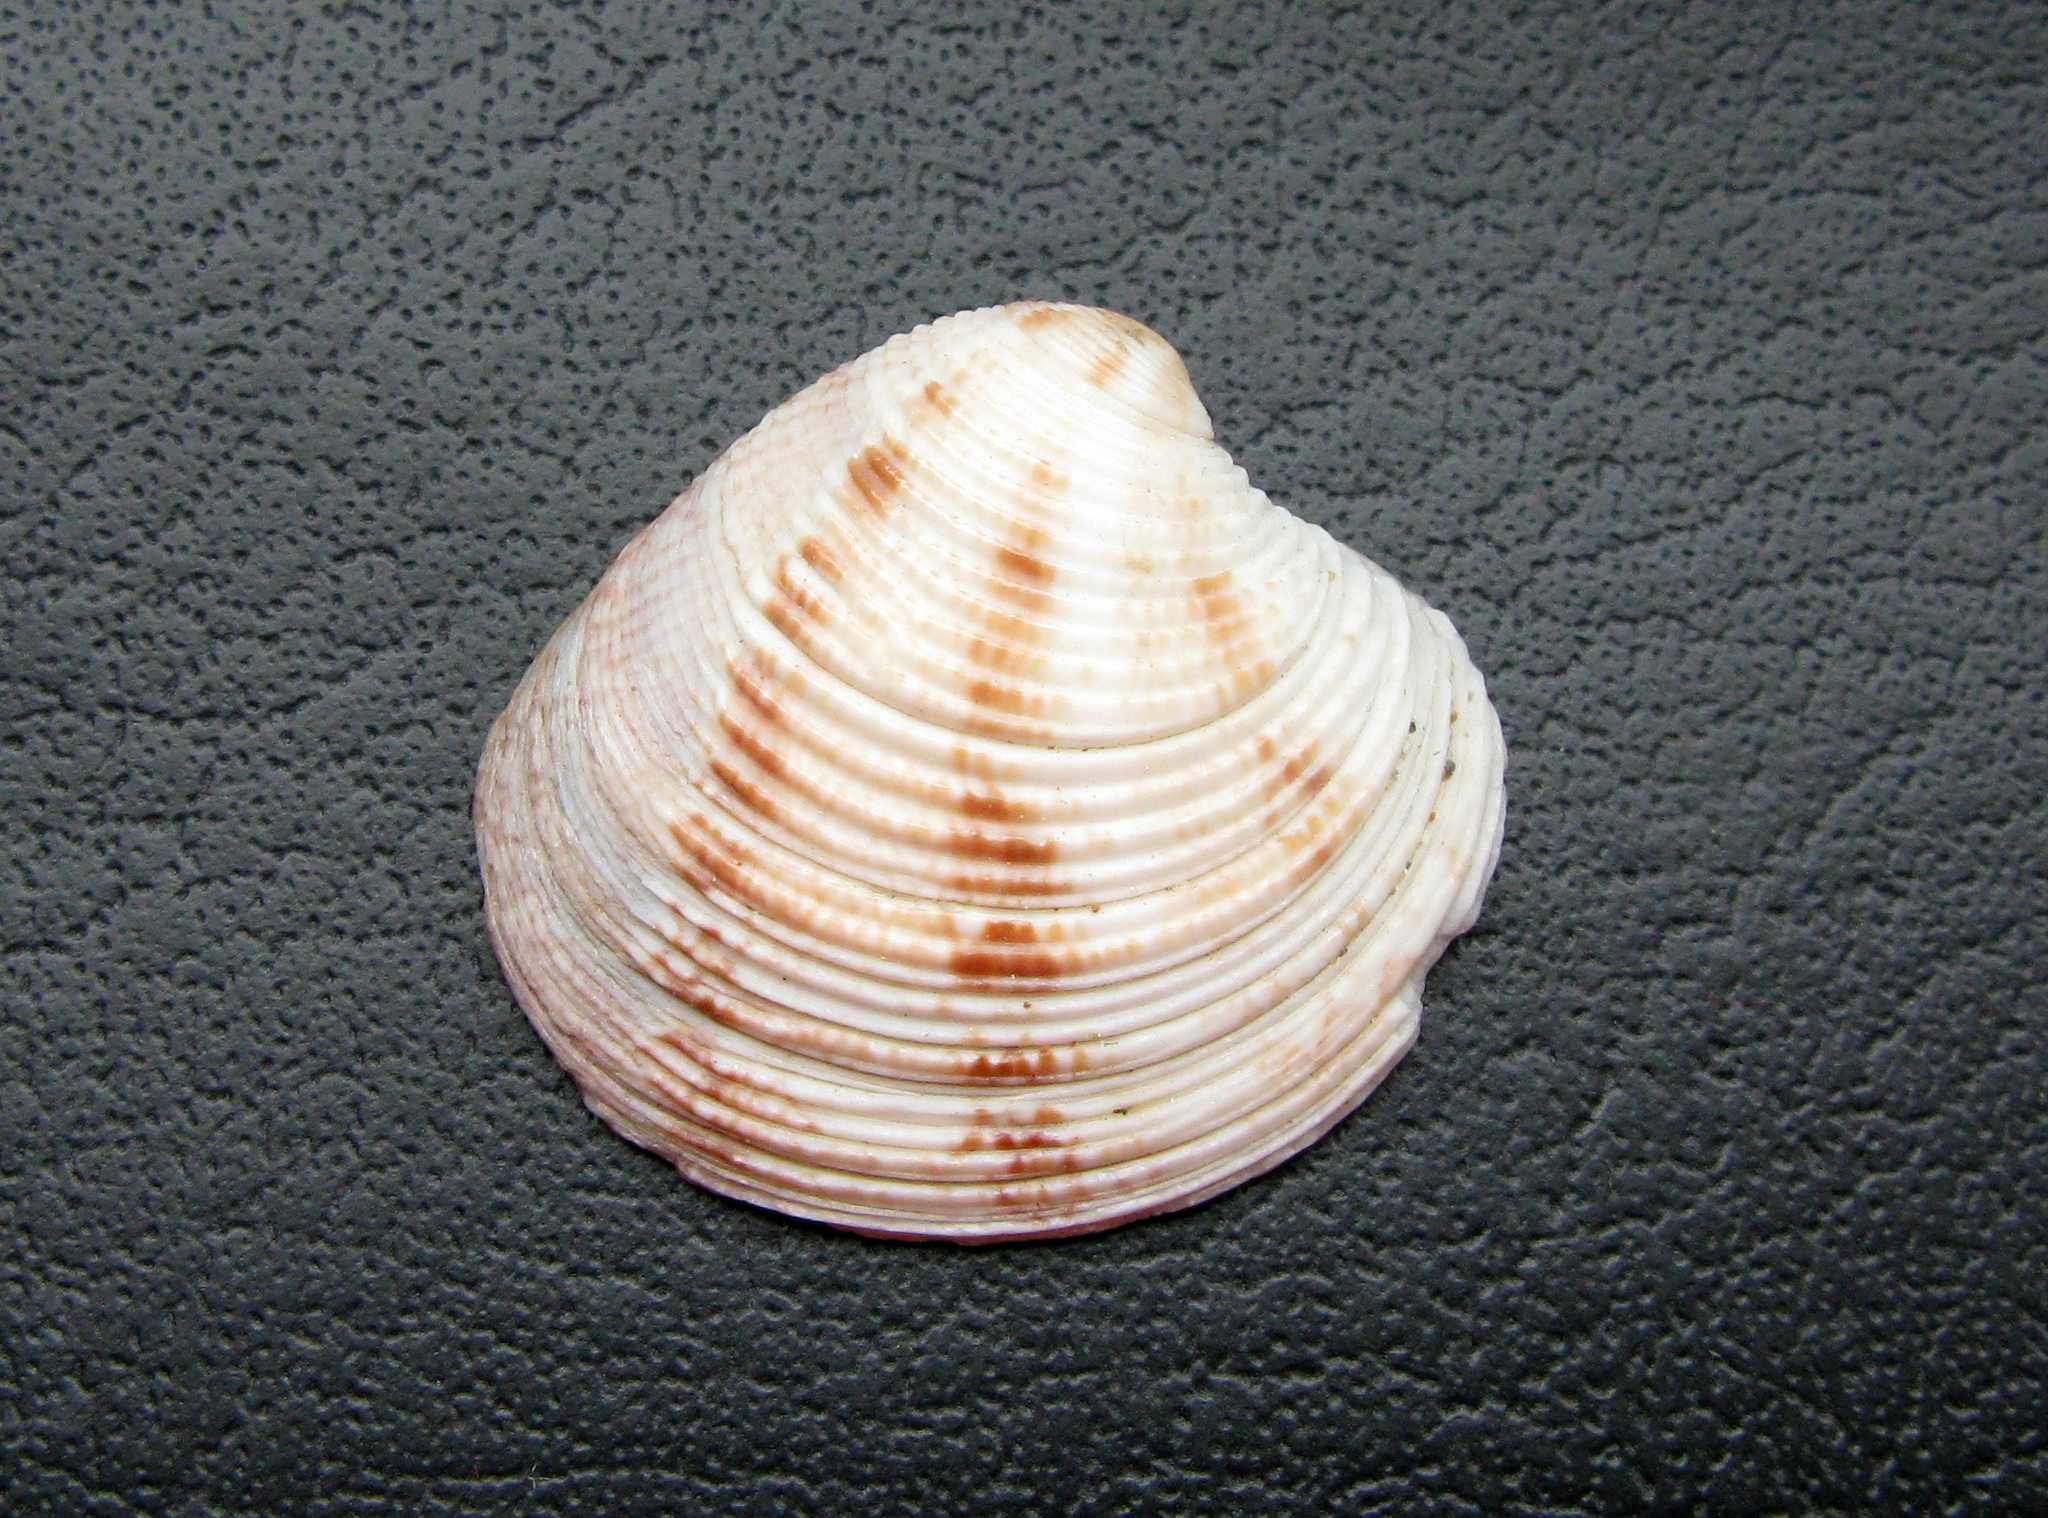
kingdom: Animalia
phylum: Mollusca
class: Bivalvia
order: Venerida
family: Veneridae
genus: Chamelea
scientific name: Chamelea gallina
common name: Chicken venus
